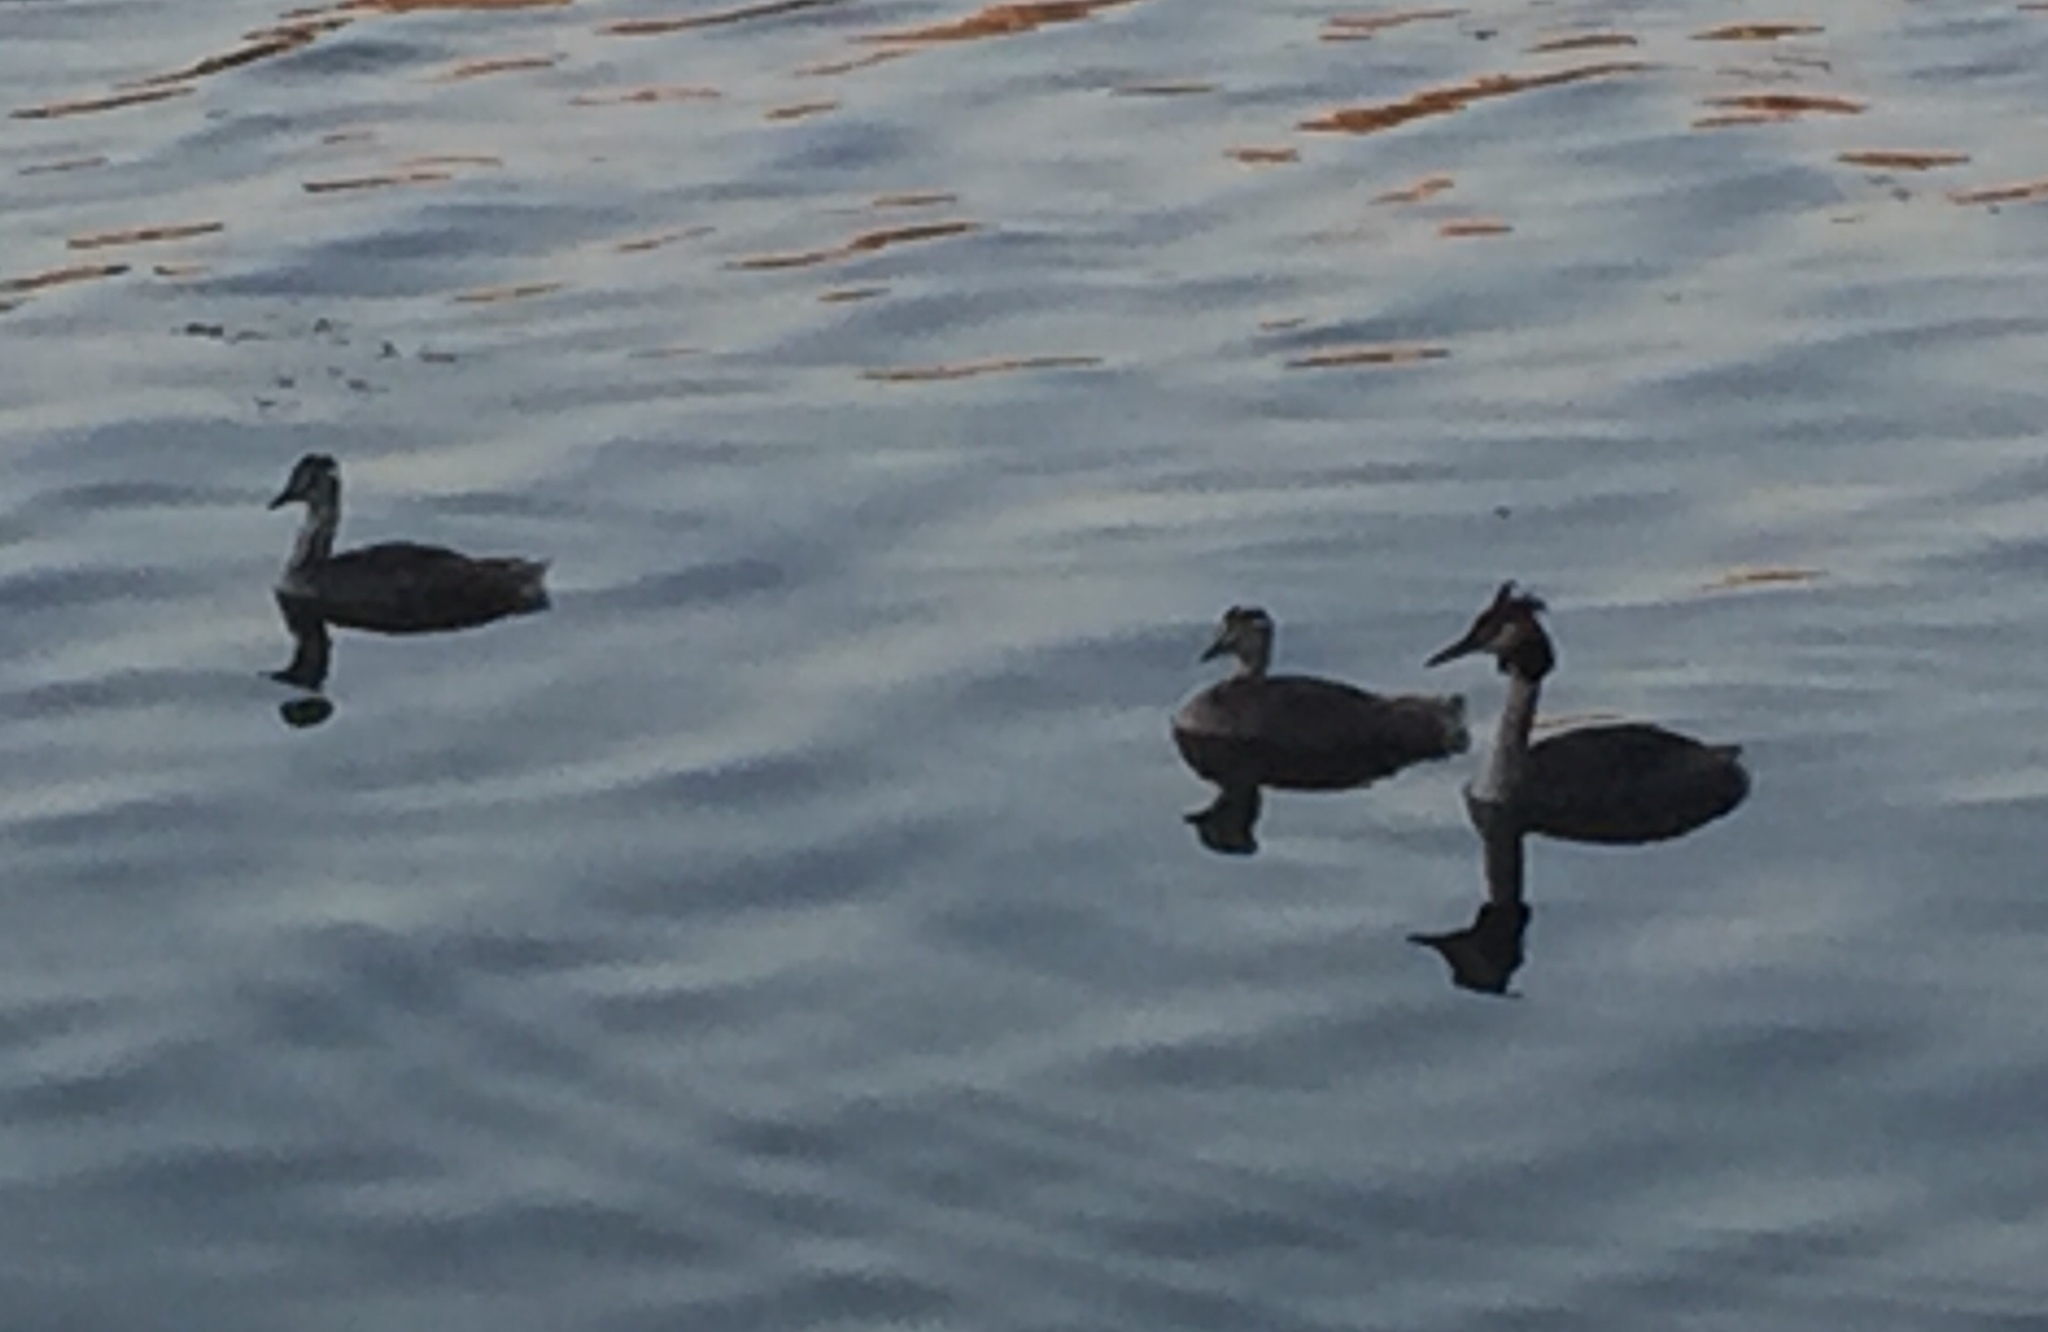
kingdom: Animalia
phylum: Chordata
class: Aves
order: Podicipediformes
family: Podicipedidae
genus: Podiceps
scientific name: Podiceps cristatus
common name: Great crested grebe
